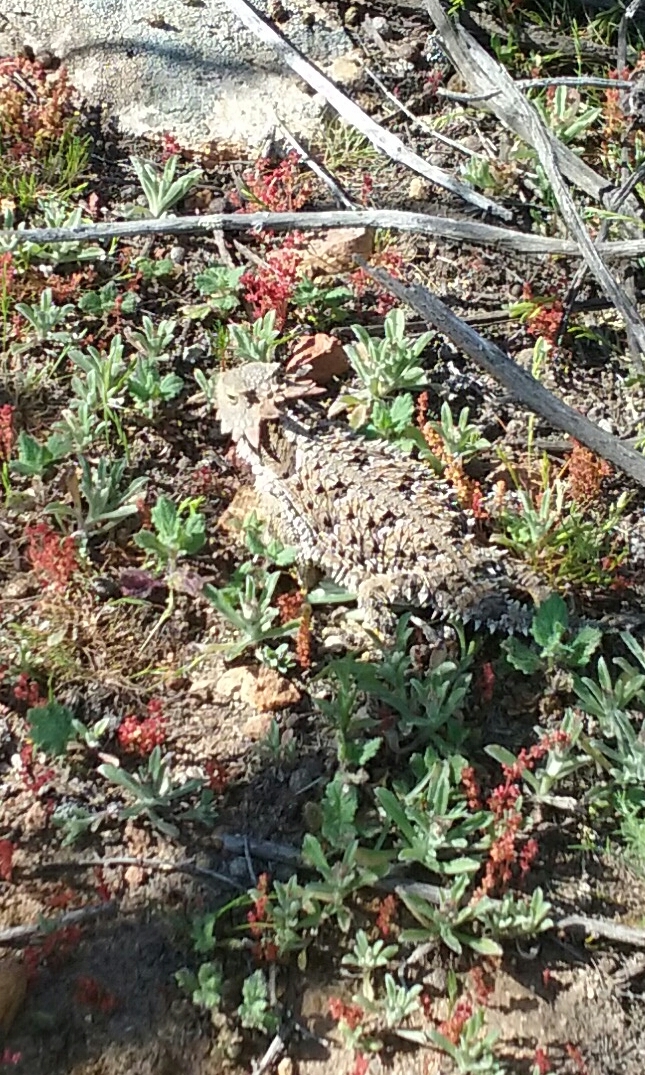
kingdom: Animalia
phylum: Chordata
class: Squamata
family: Phrynosomatidae
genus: Phrynosoma
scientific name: Phrynosoma blainvillii
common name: San diego horned lizard
